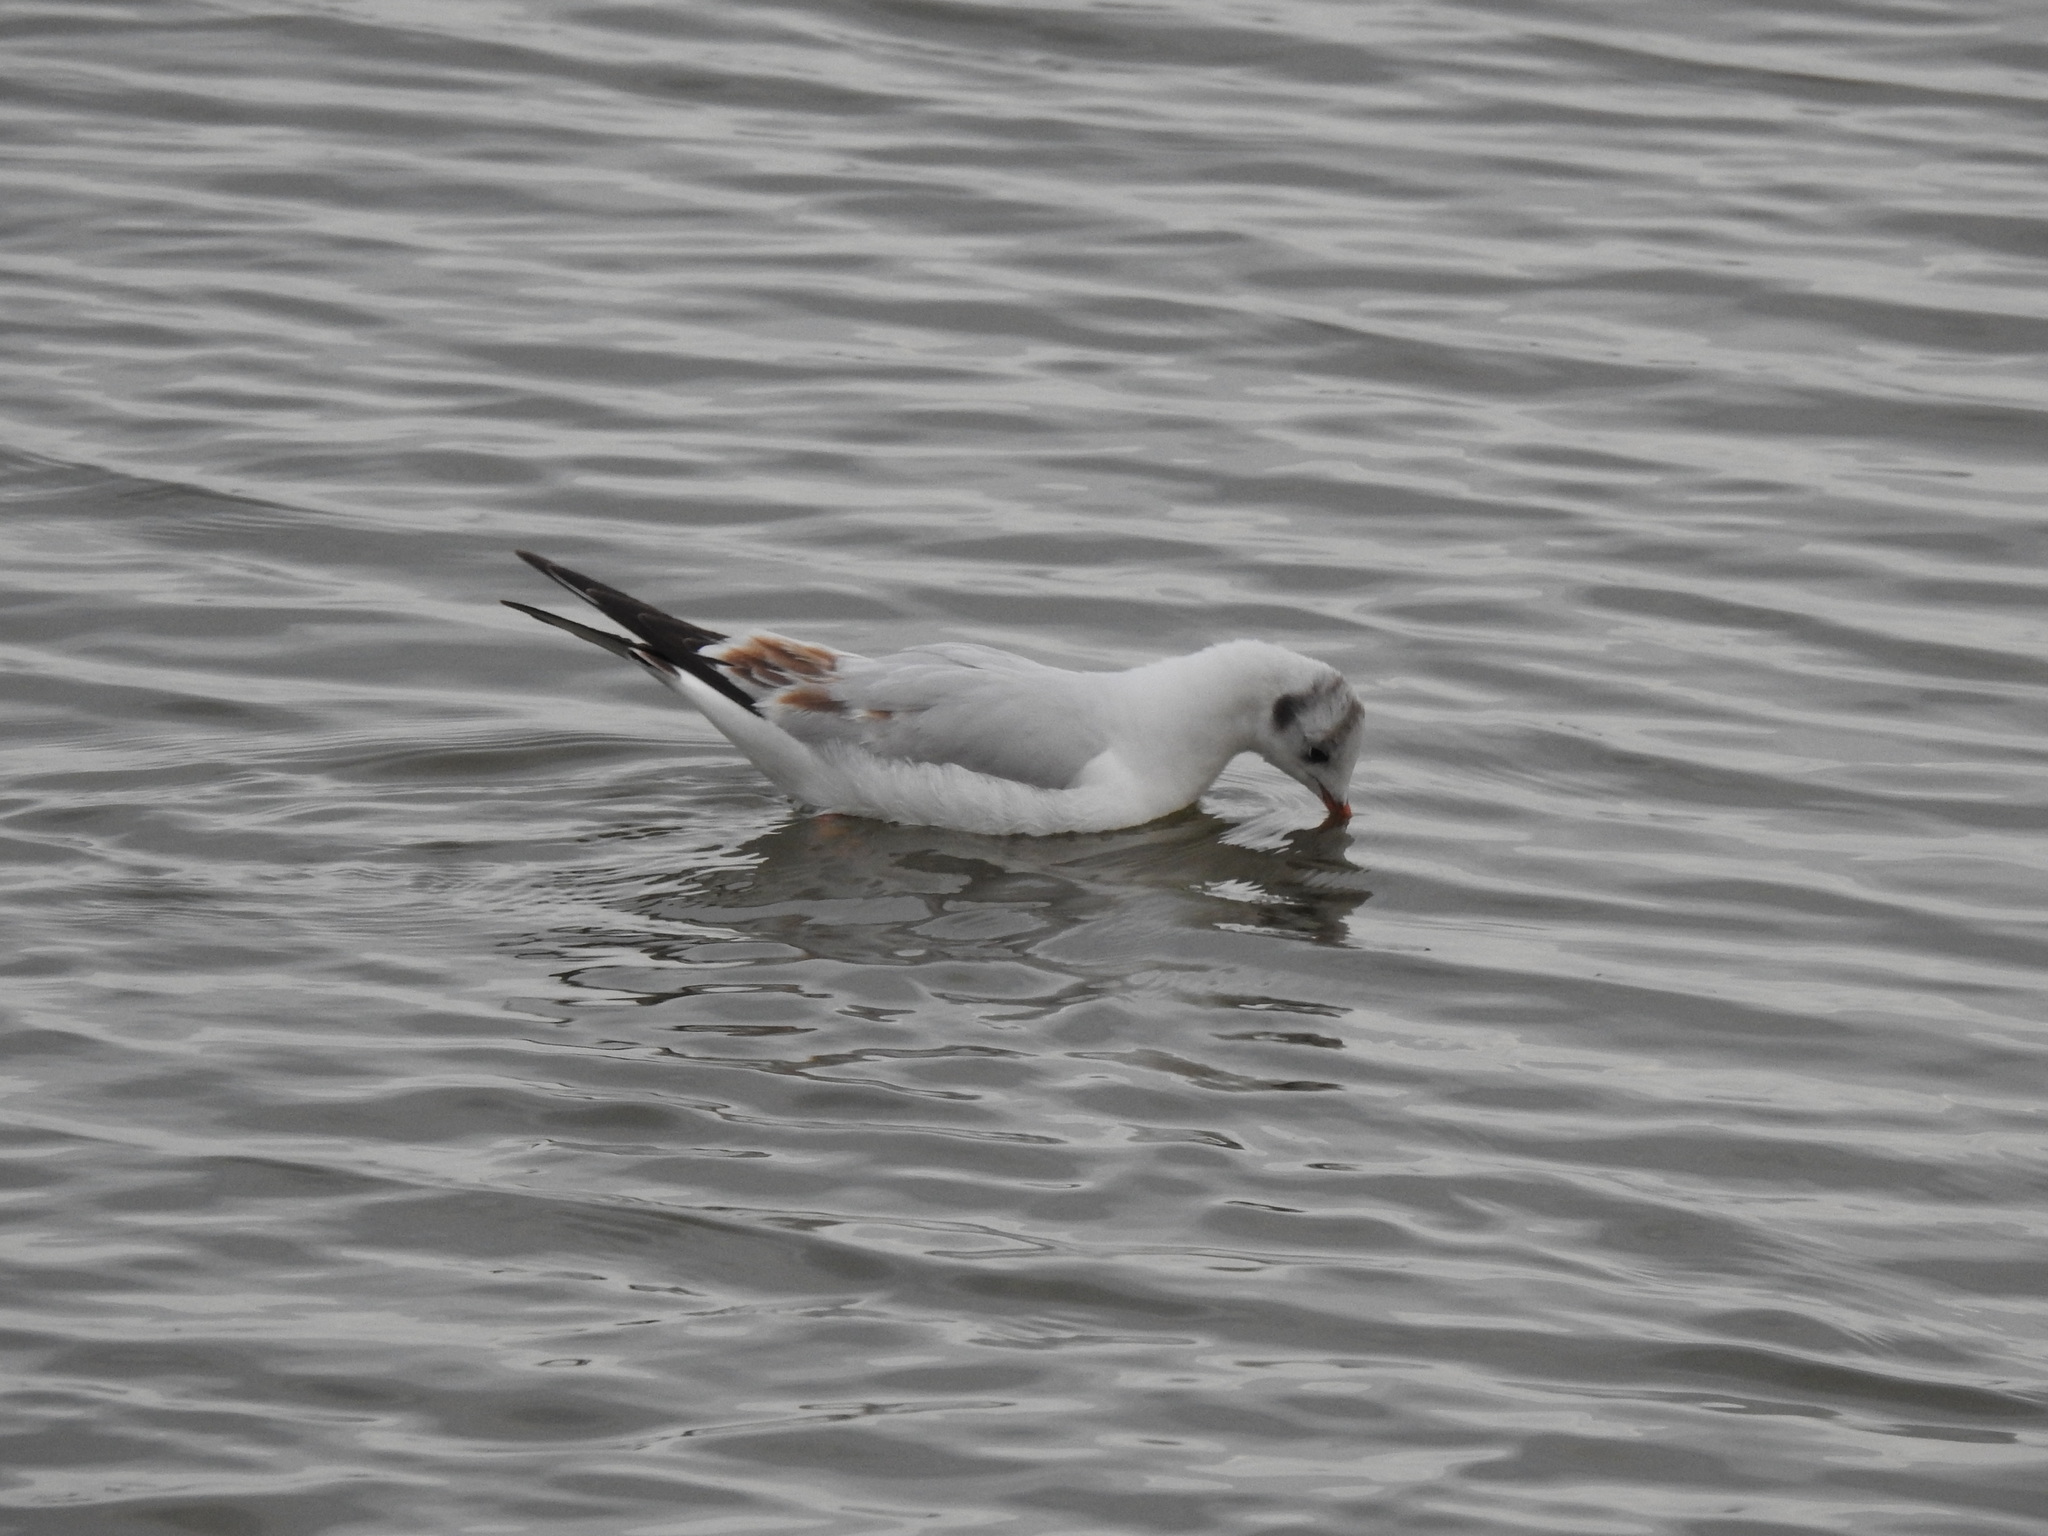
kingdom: Animalia
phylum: Chordata
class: Aves
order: Charadriiformes
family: Laridae
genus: Chroicocephalus
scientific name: Chroicocephalus ridibundus
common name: Black-headed gull
